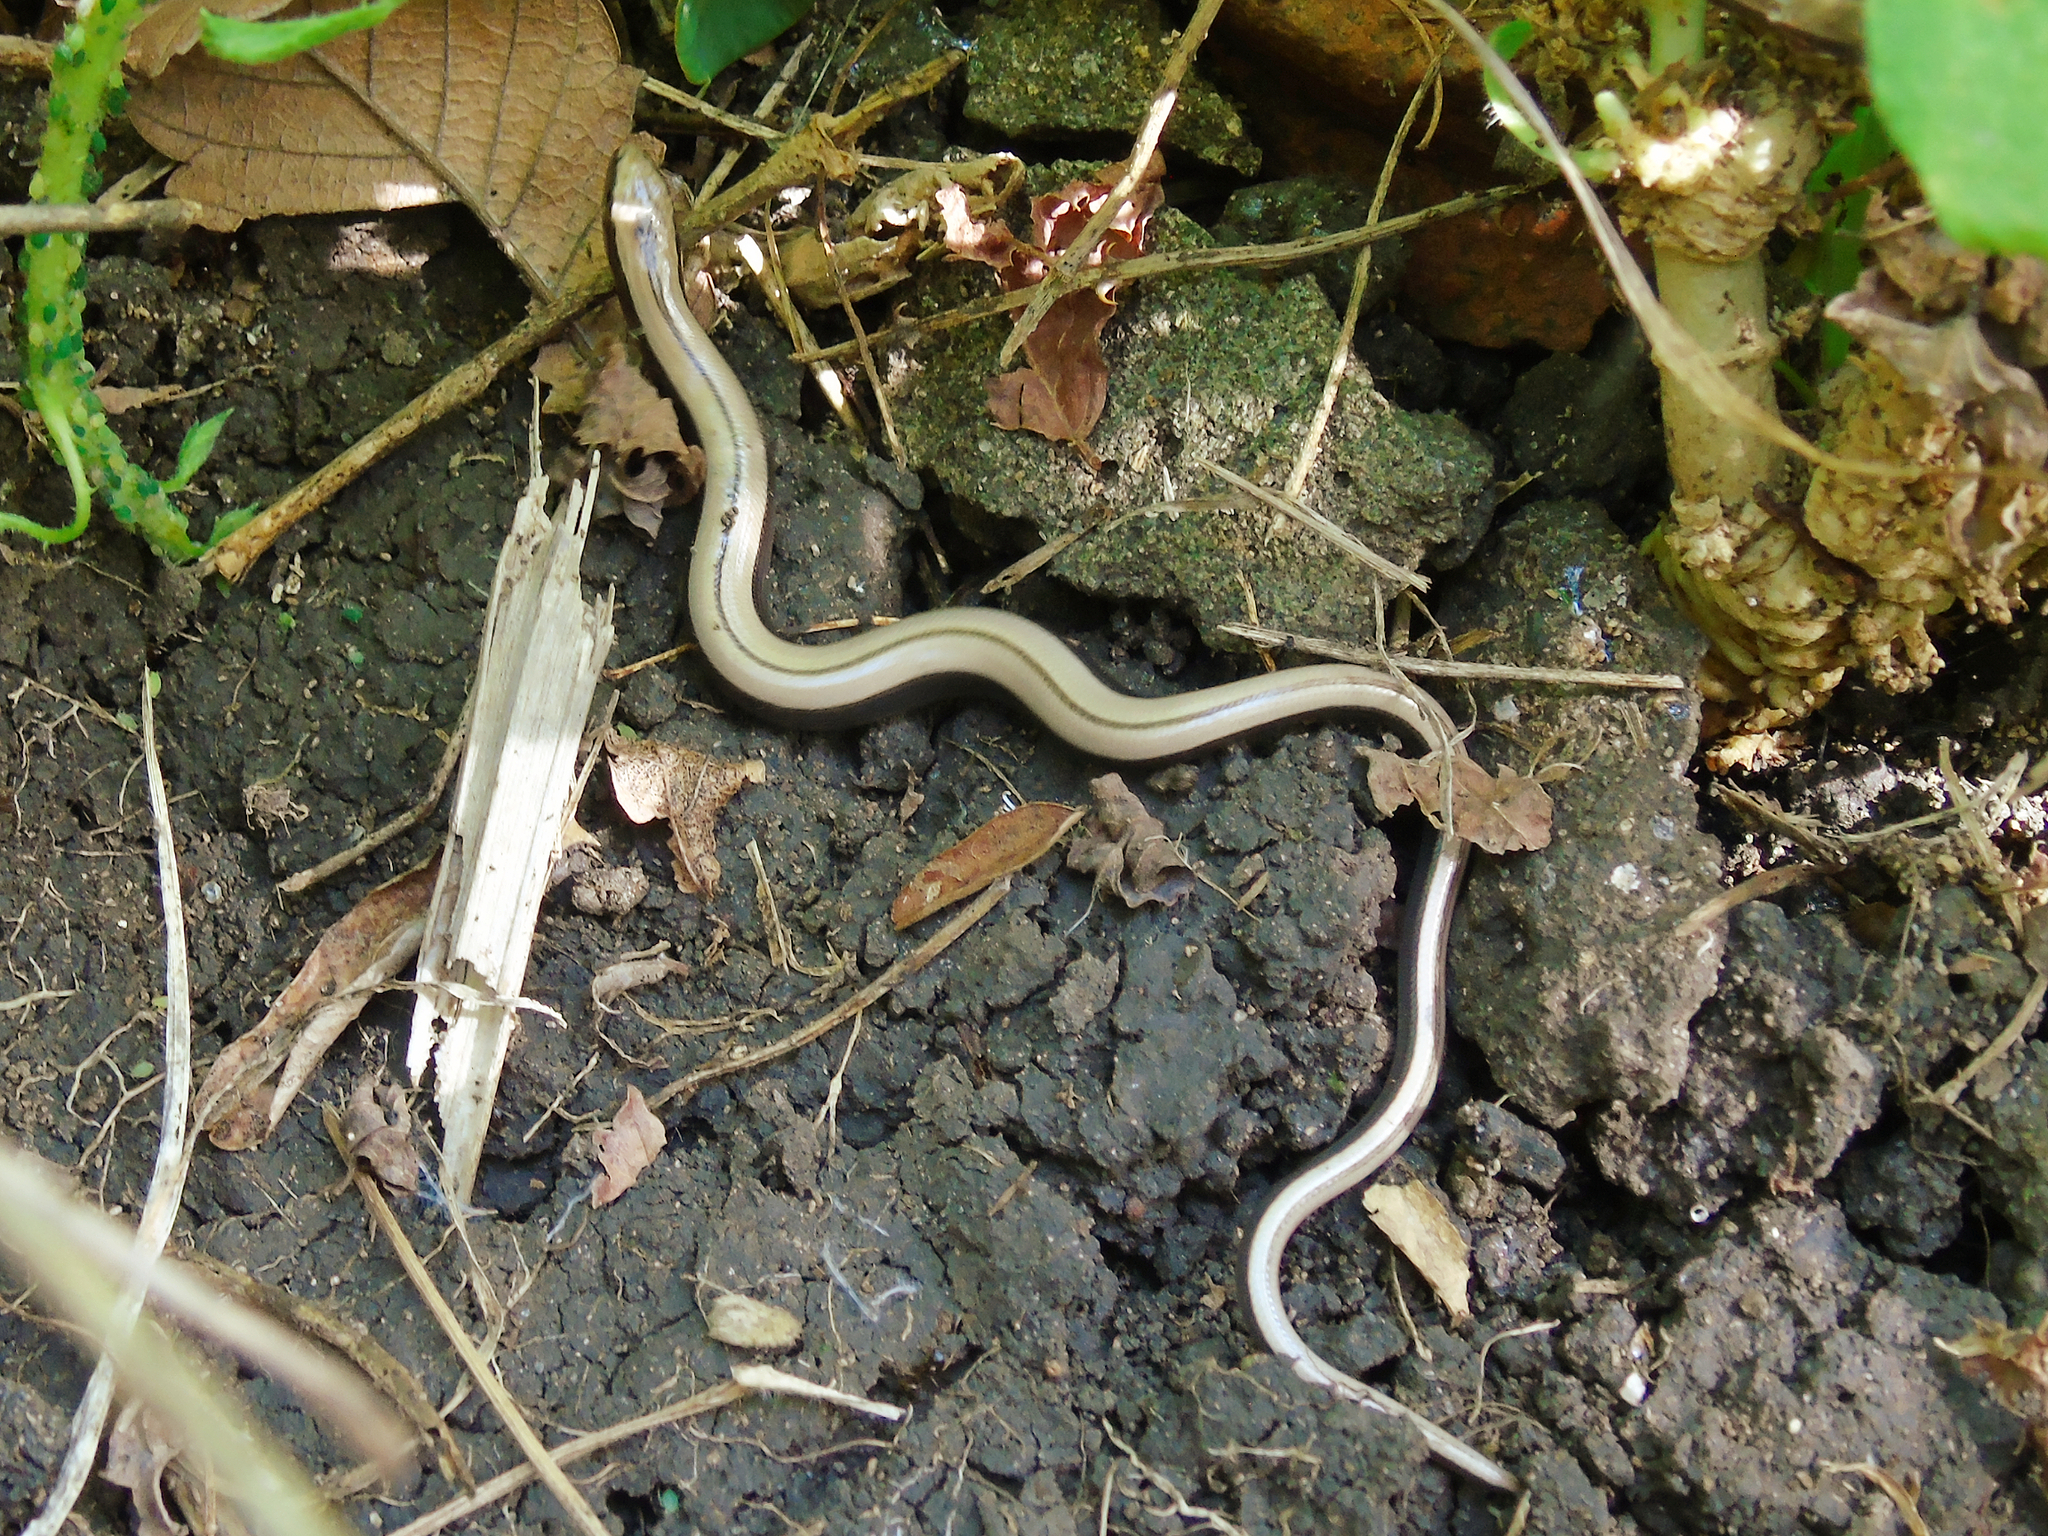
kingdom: Animalia
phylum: Chordata
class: Squamata
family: Anguidae
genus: Anguis
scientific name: Anguis colchica
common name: Slow worm
